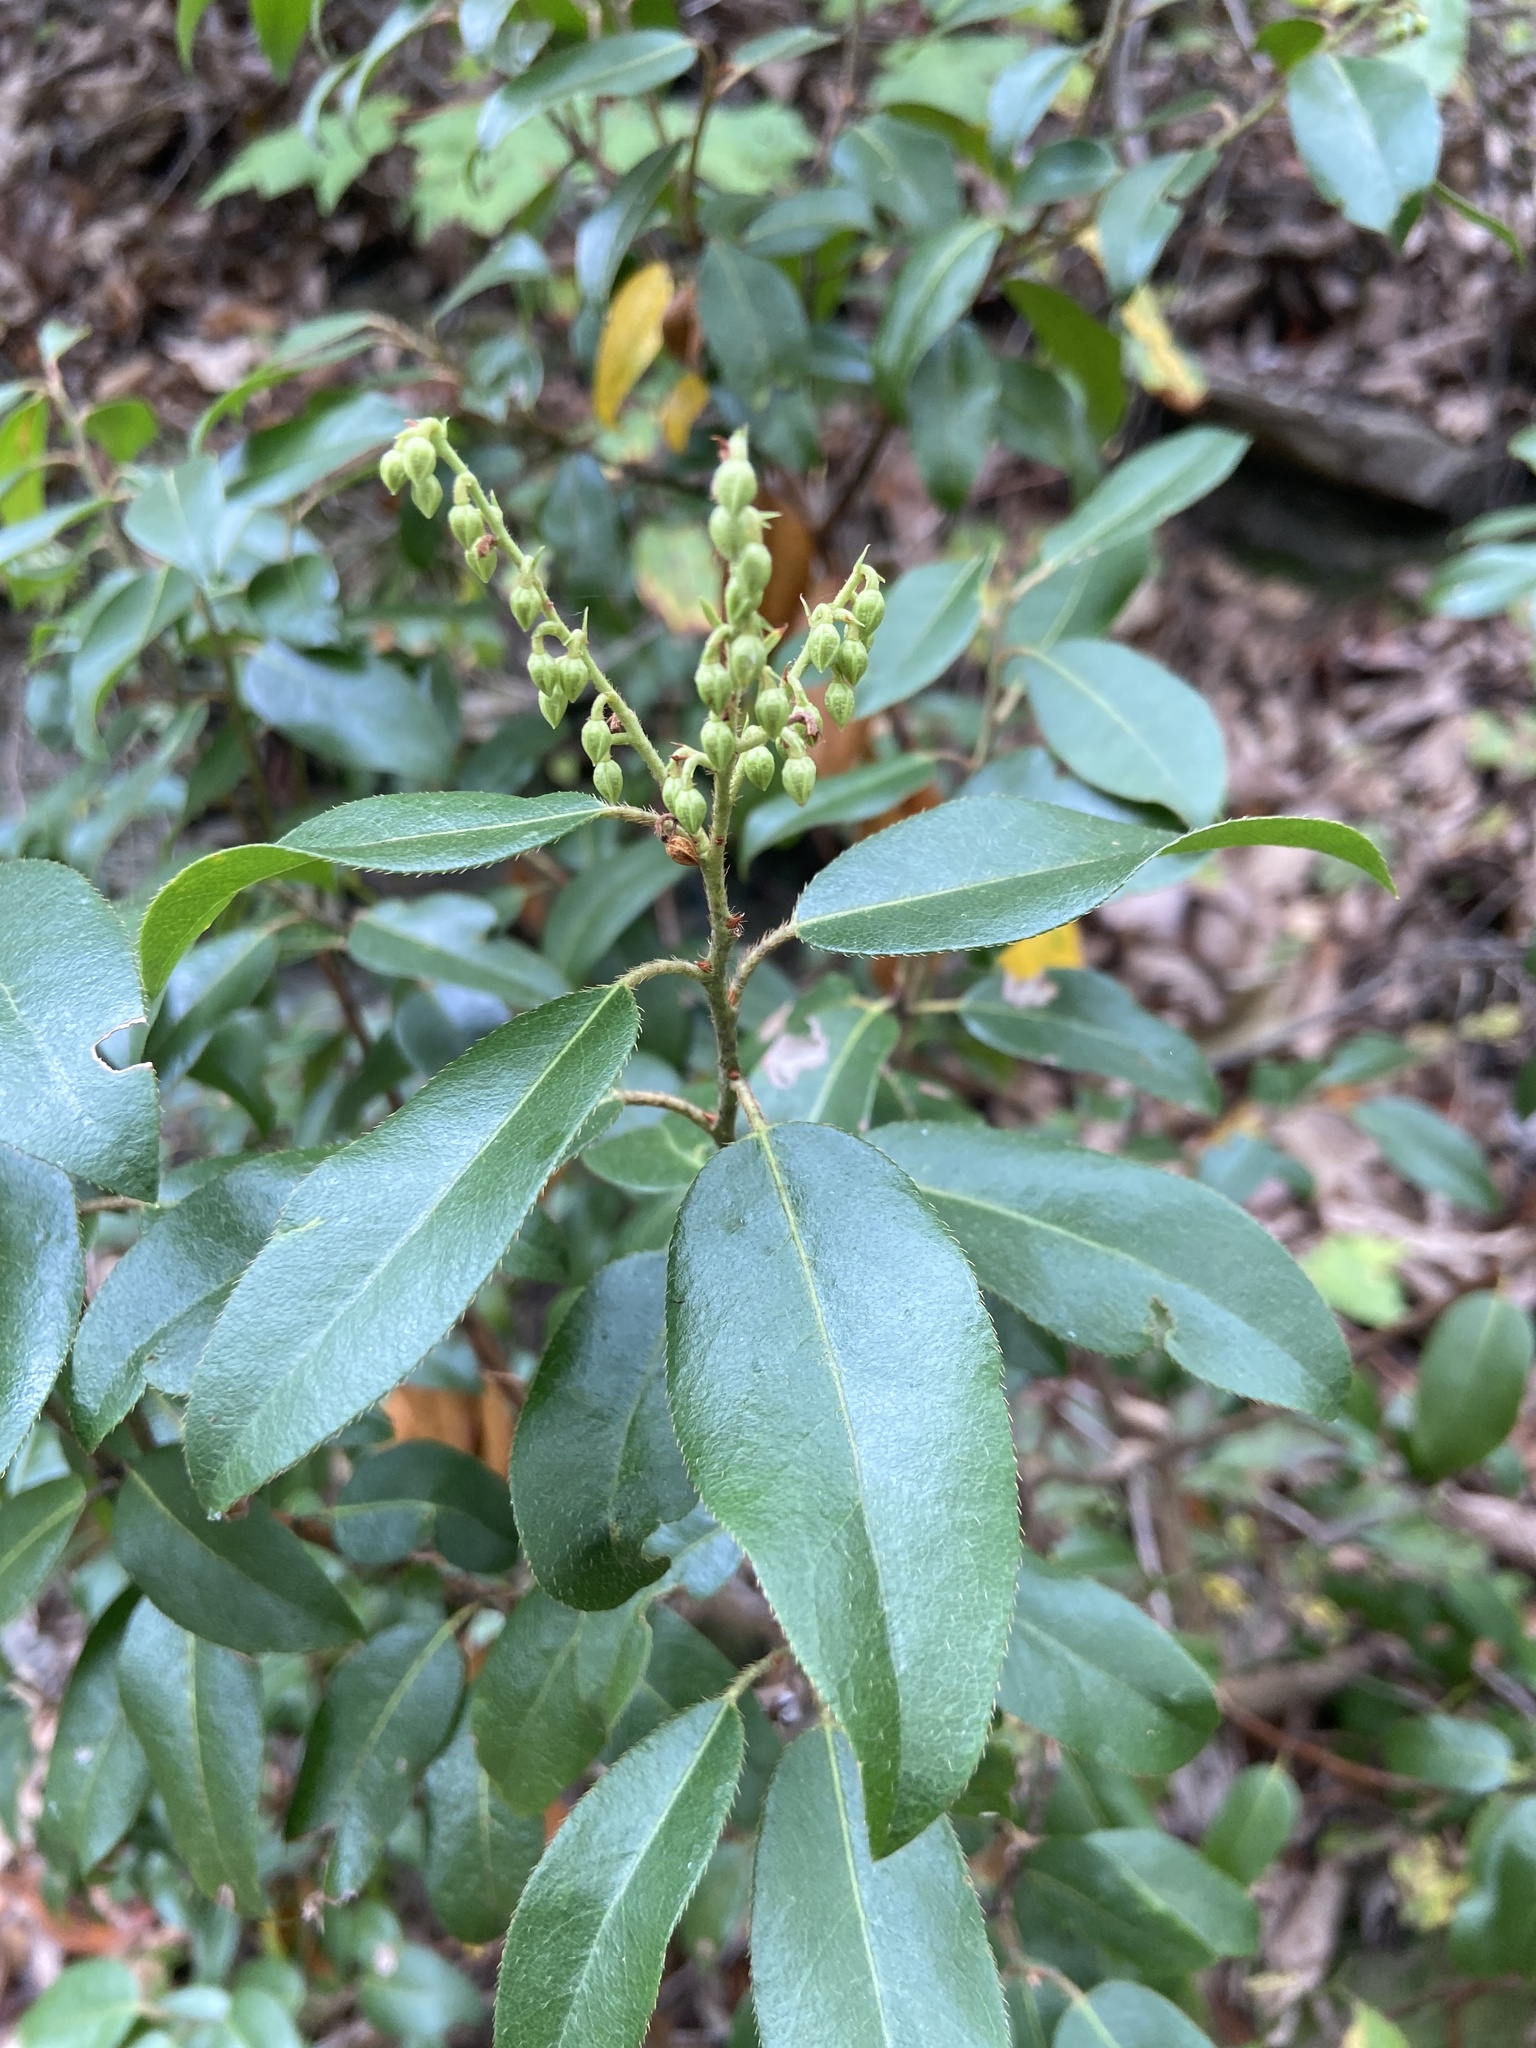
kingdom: Plantae
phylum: Tracheophyta
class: Magnoliopsida
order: Ericales
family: Ericaceae
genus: Pieris
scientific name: Pieris floribunda
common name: Flutterbush
